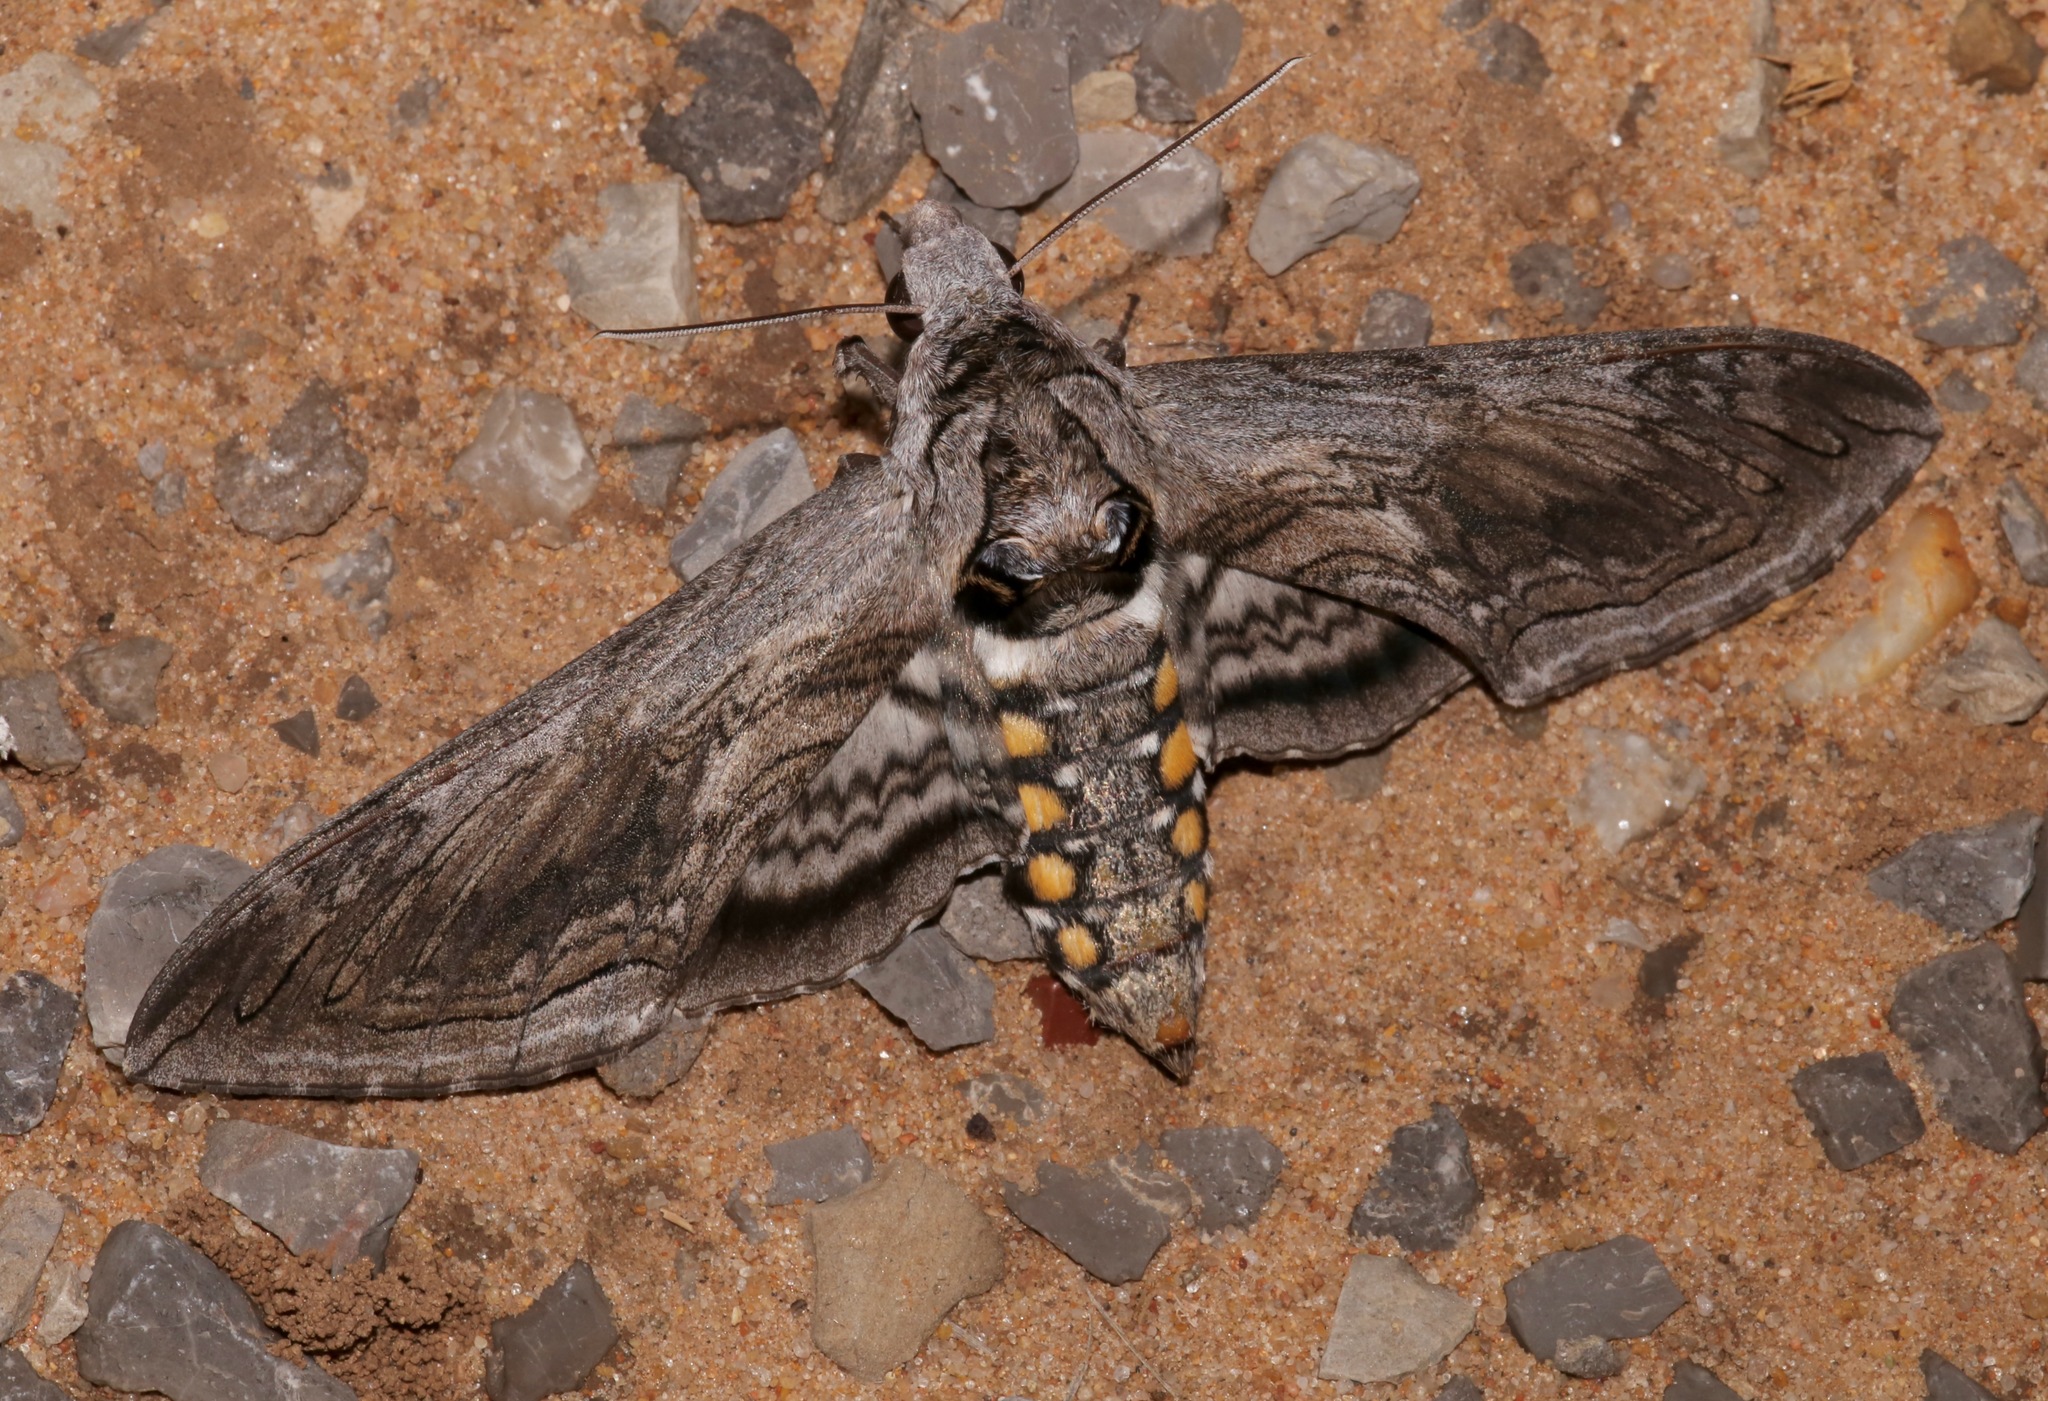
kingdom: Animalia
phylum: Arthropoda
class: Insecta
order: Lepidoptera
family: Sphingidae
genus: Manduca
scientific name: Manduca quinquemaculatus
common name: Five-spotted hawk-moth
